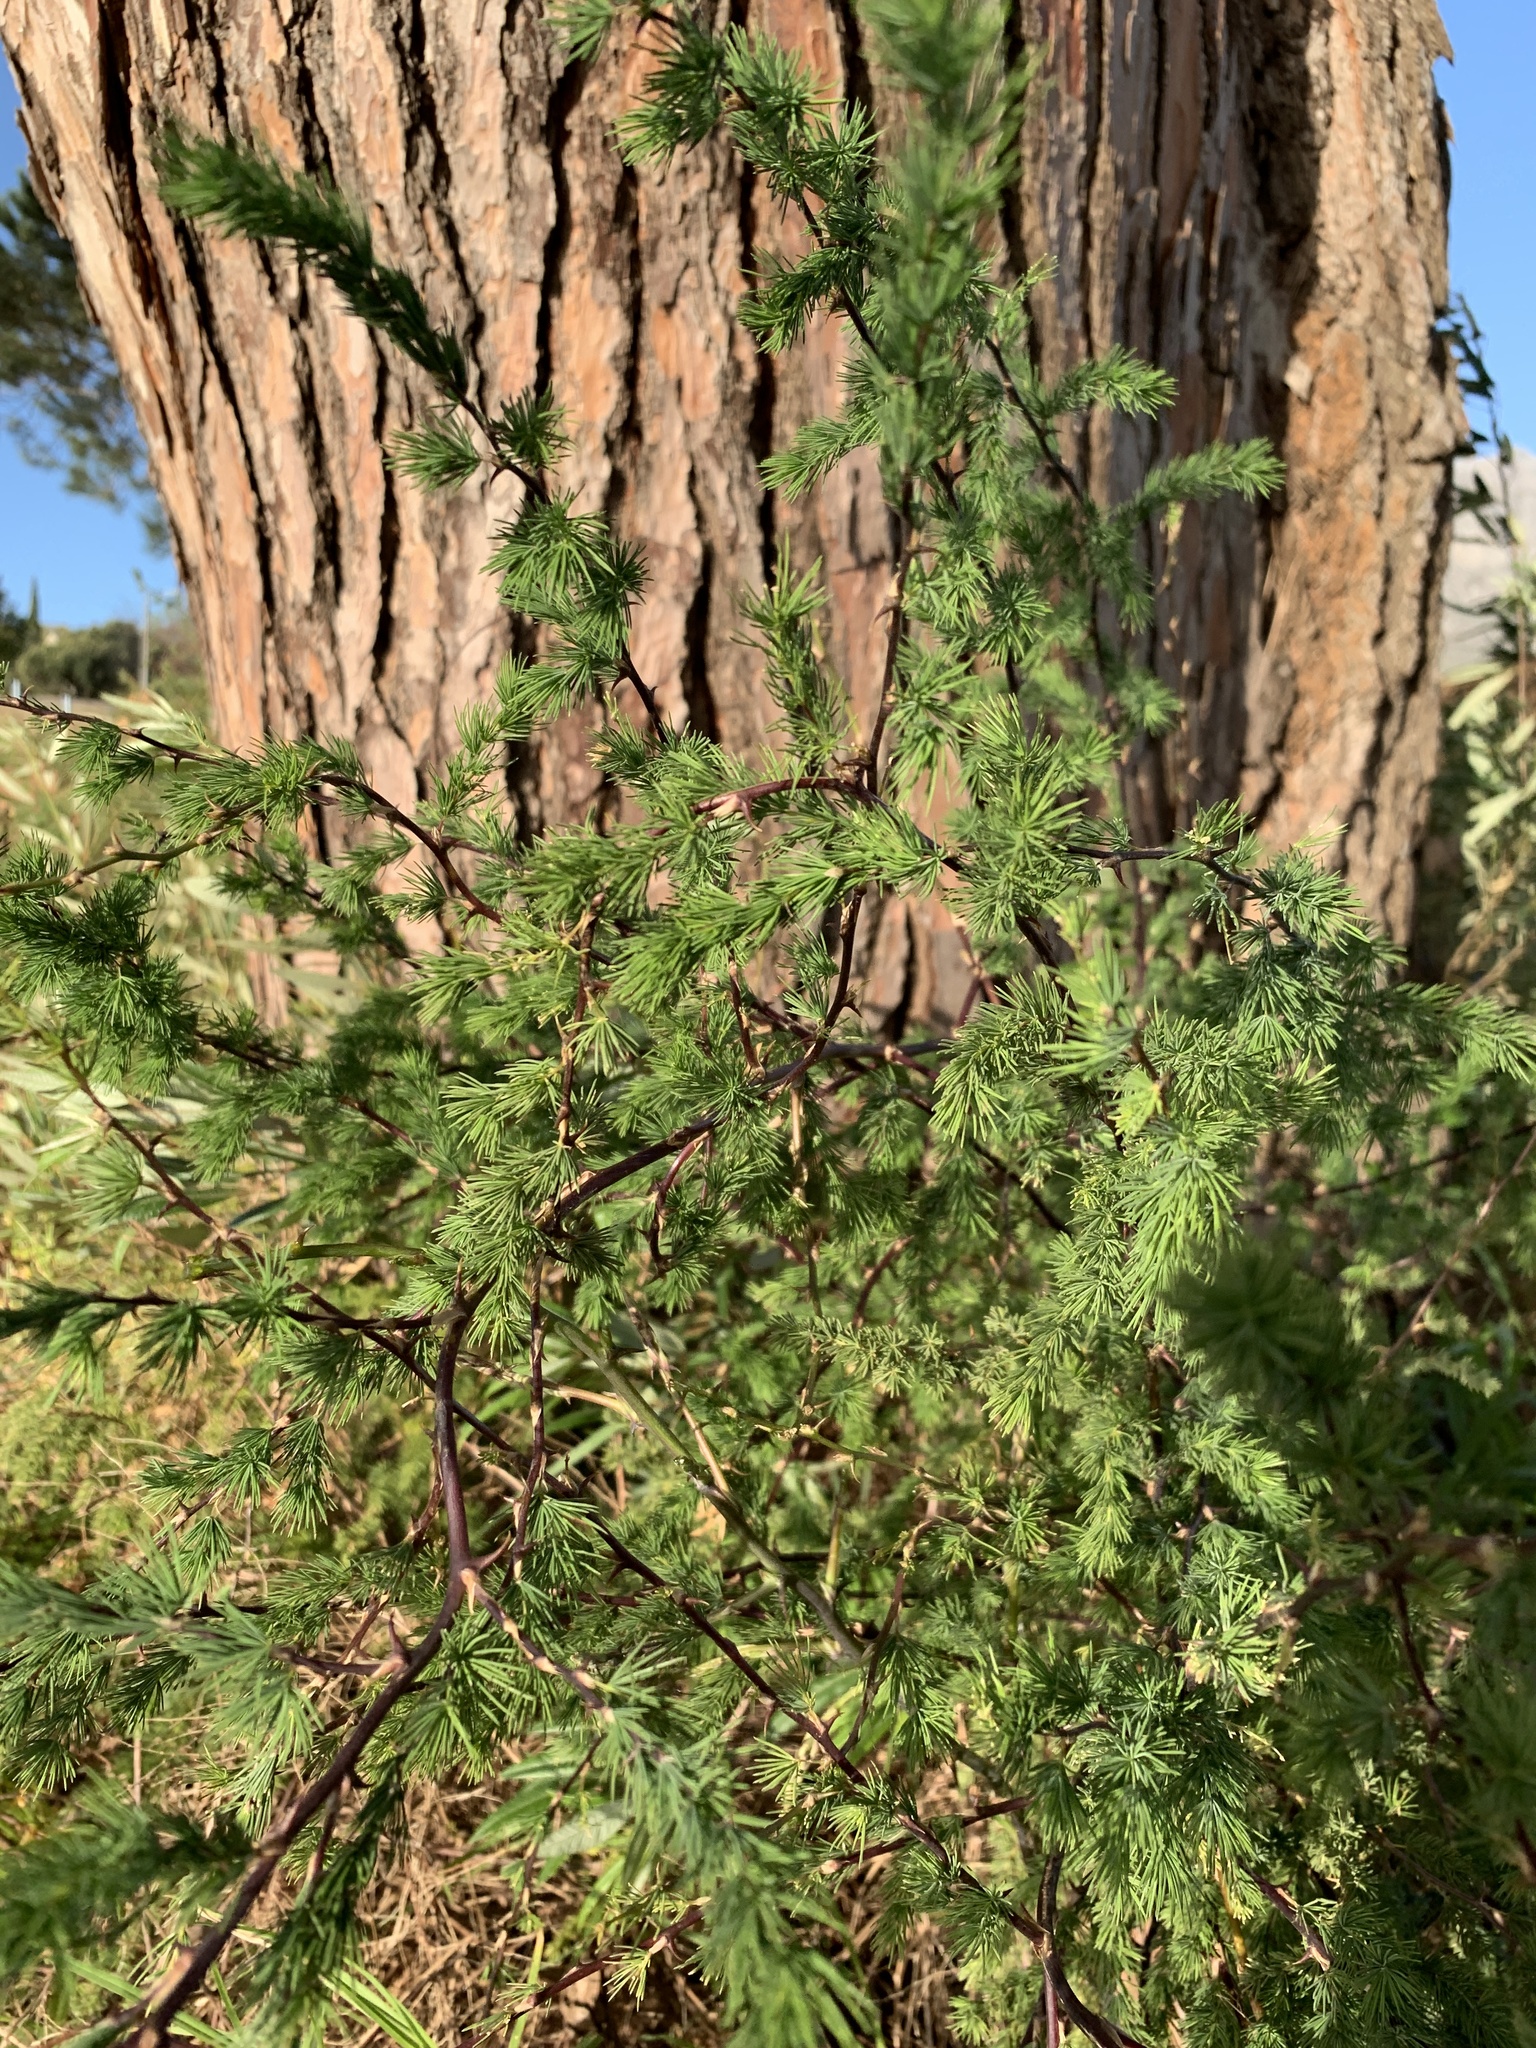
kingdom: Plantae
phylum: Tracheophyta
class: Liliopsida
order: Asparagales
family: Asparagaceae
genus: Asparagus
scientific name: Asparagus rubicundus
